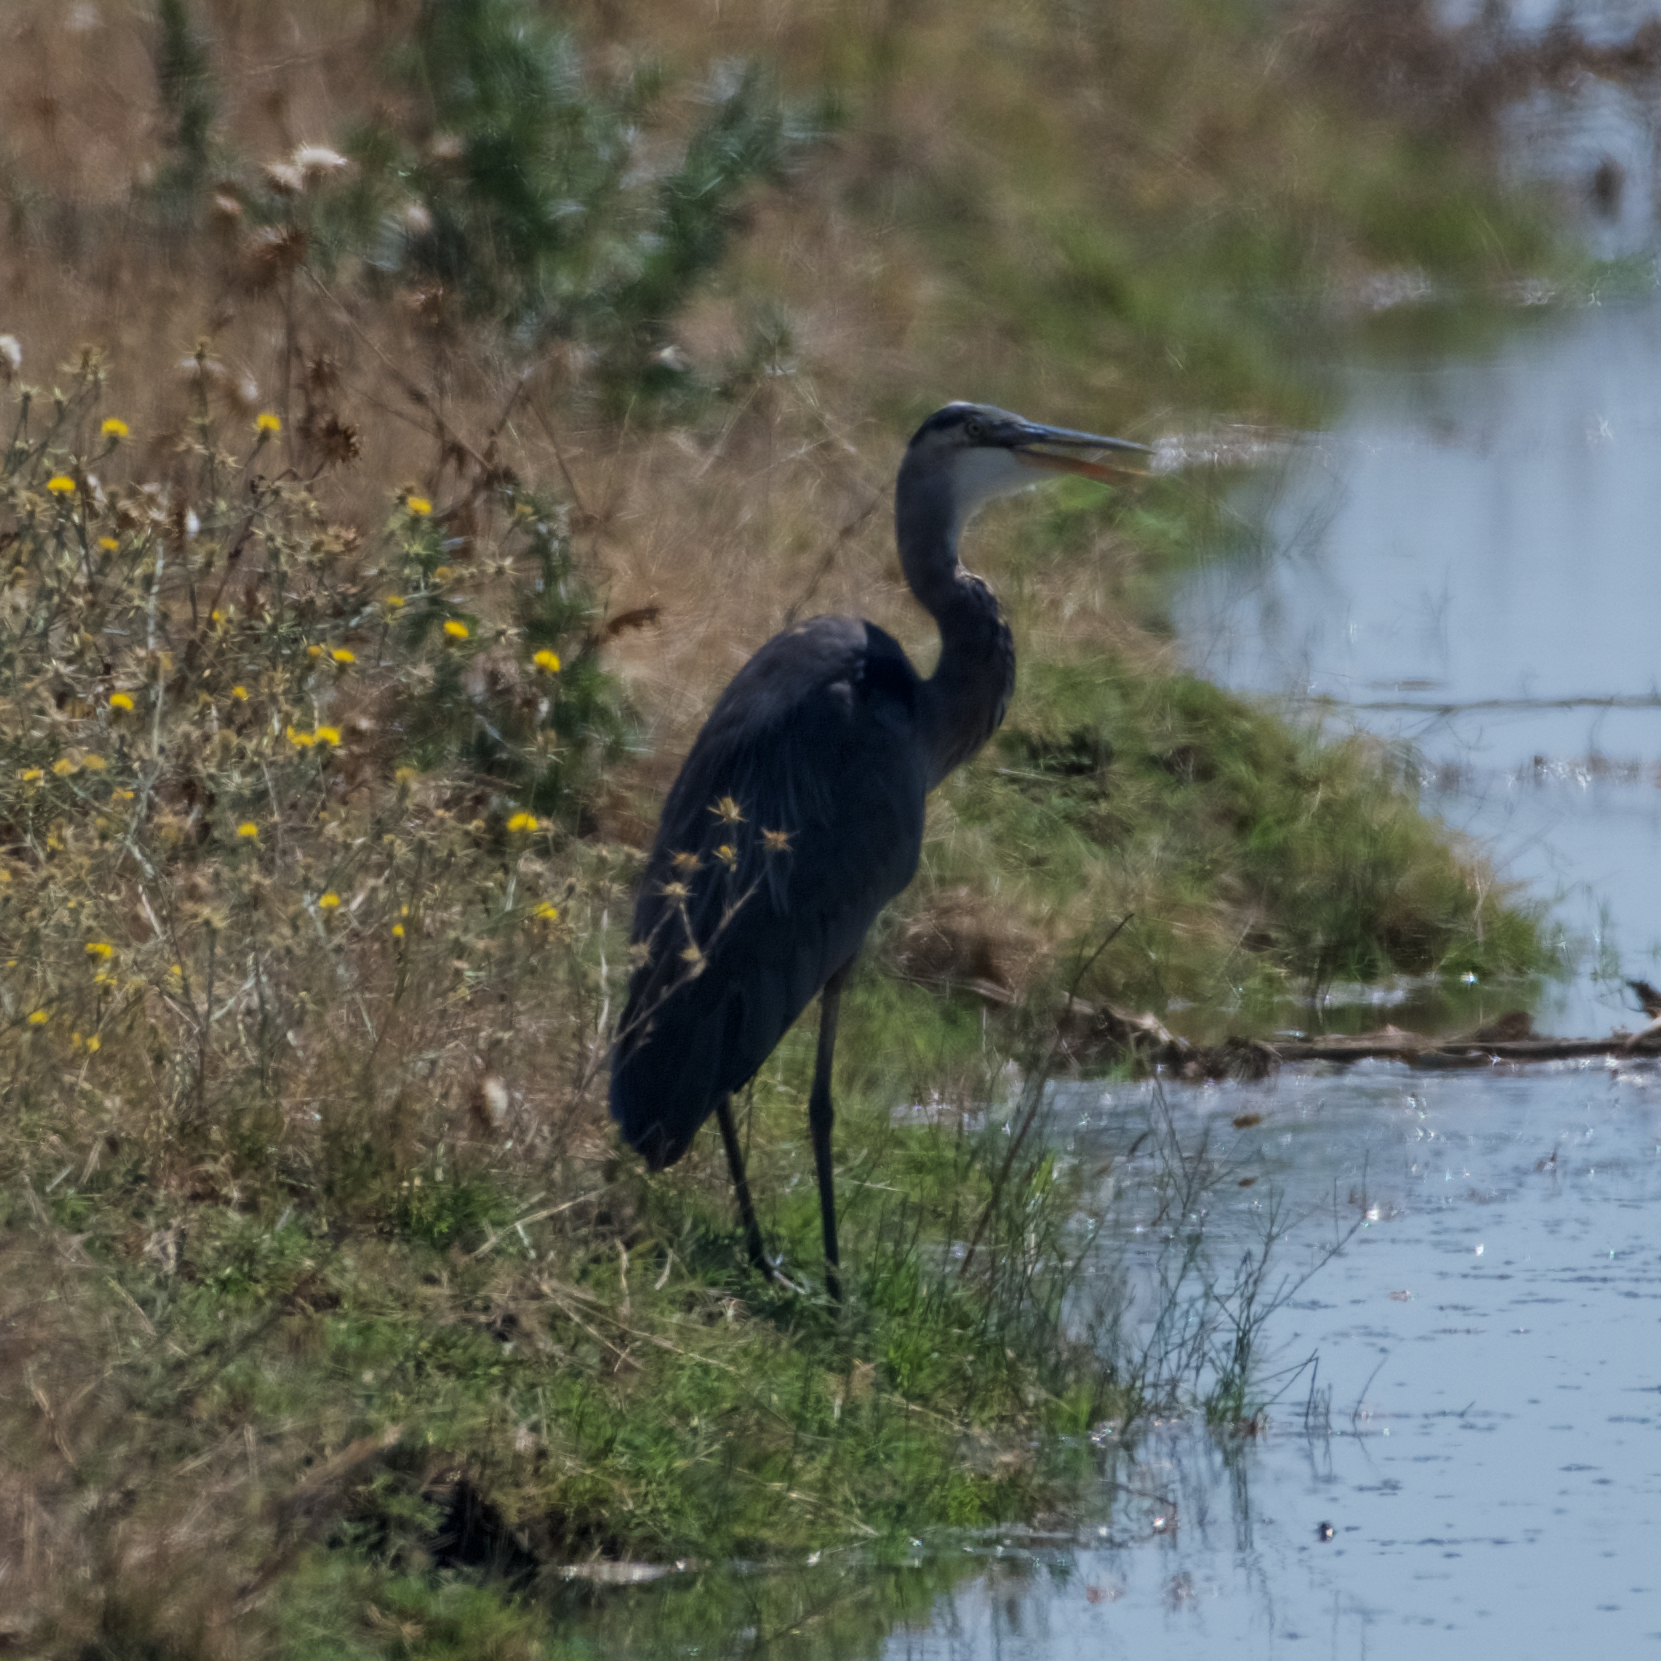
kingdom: Animalia
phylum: Chordata
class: Aves
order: Pelecaniformes
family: Ardeidae
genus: Ardea
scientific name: Ardea herodias
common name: Great blue heron
